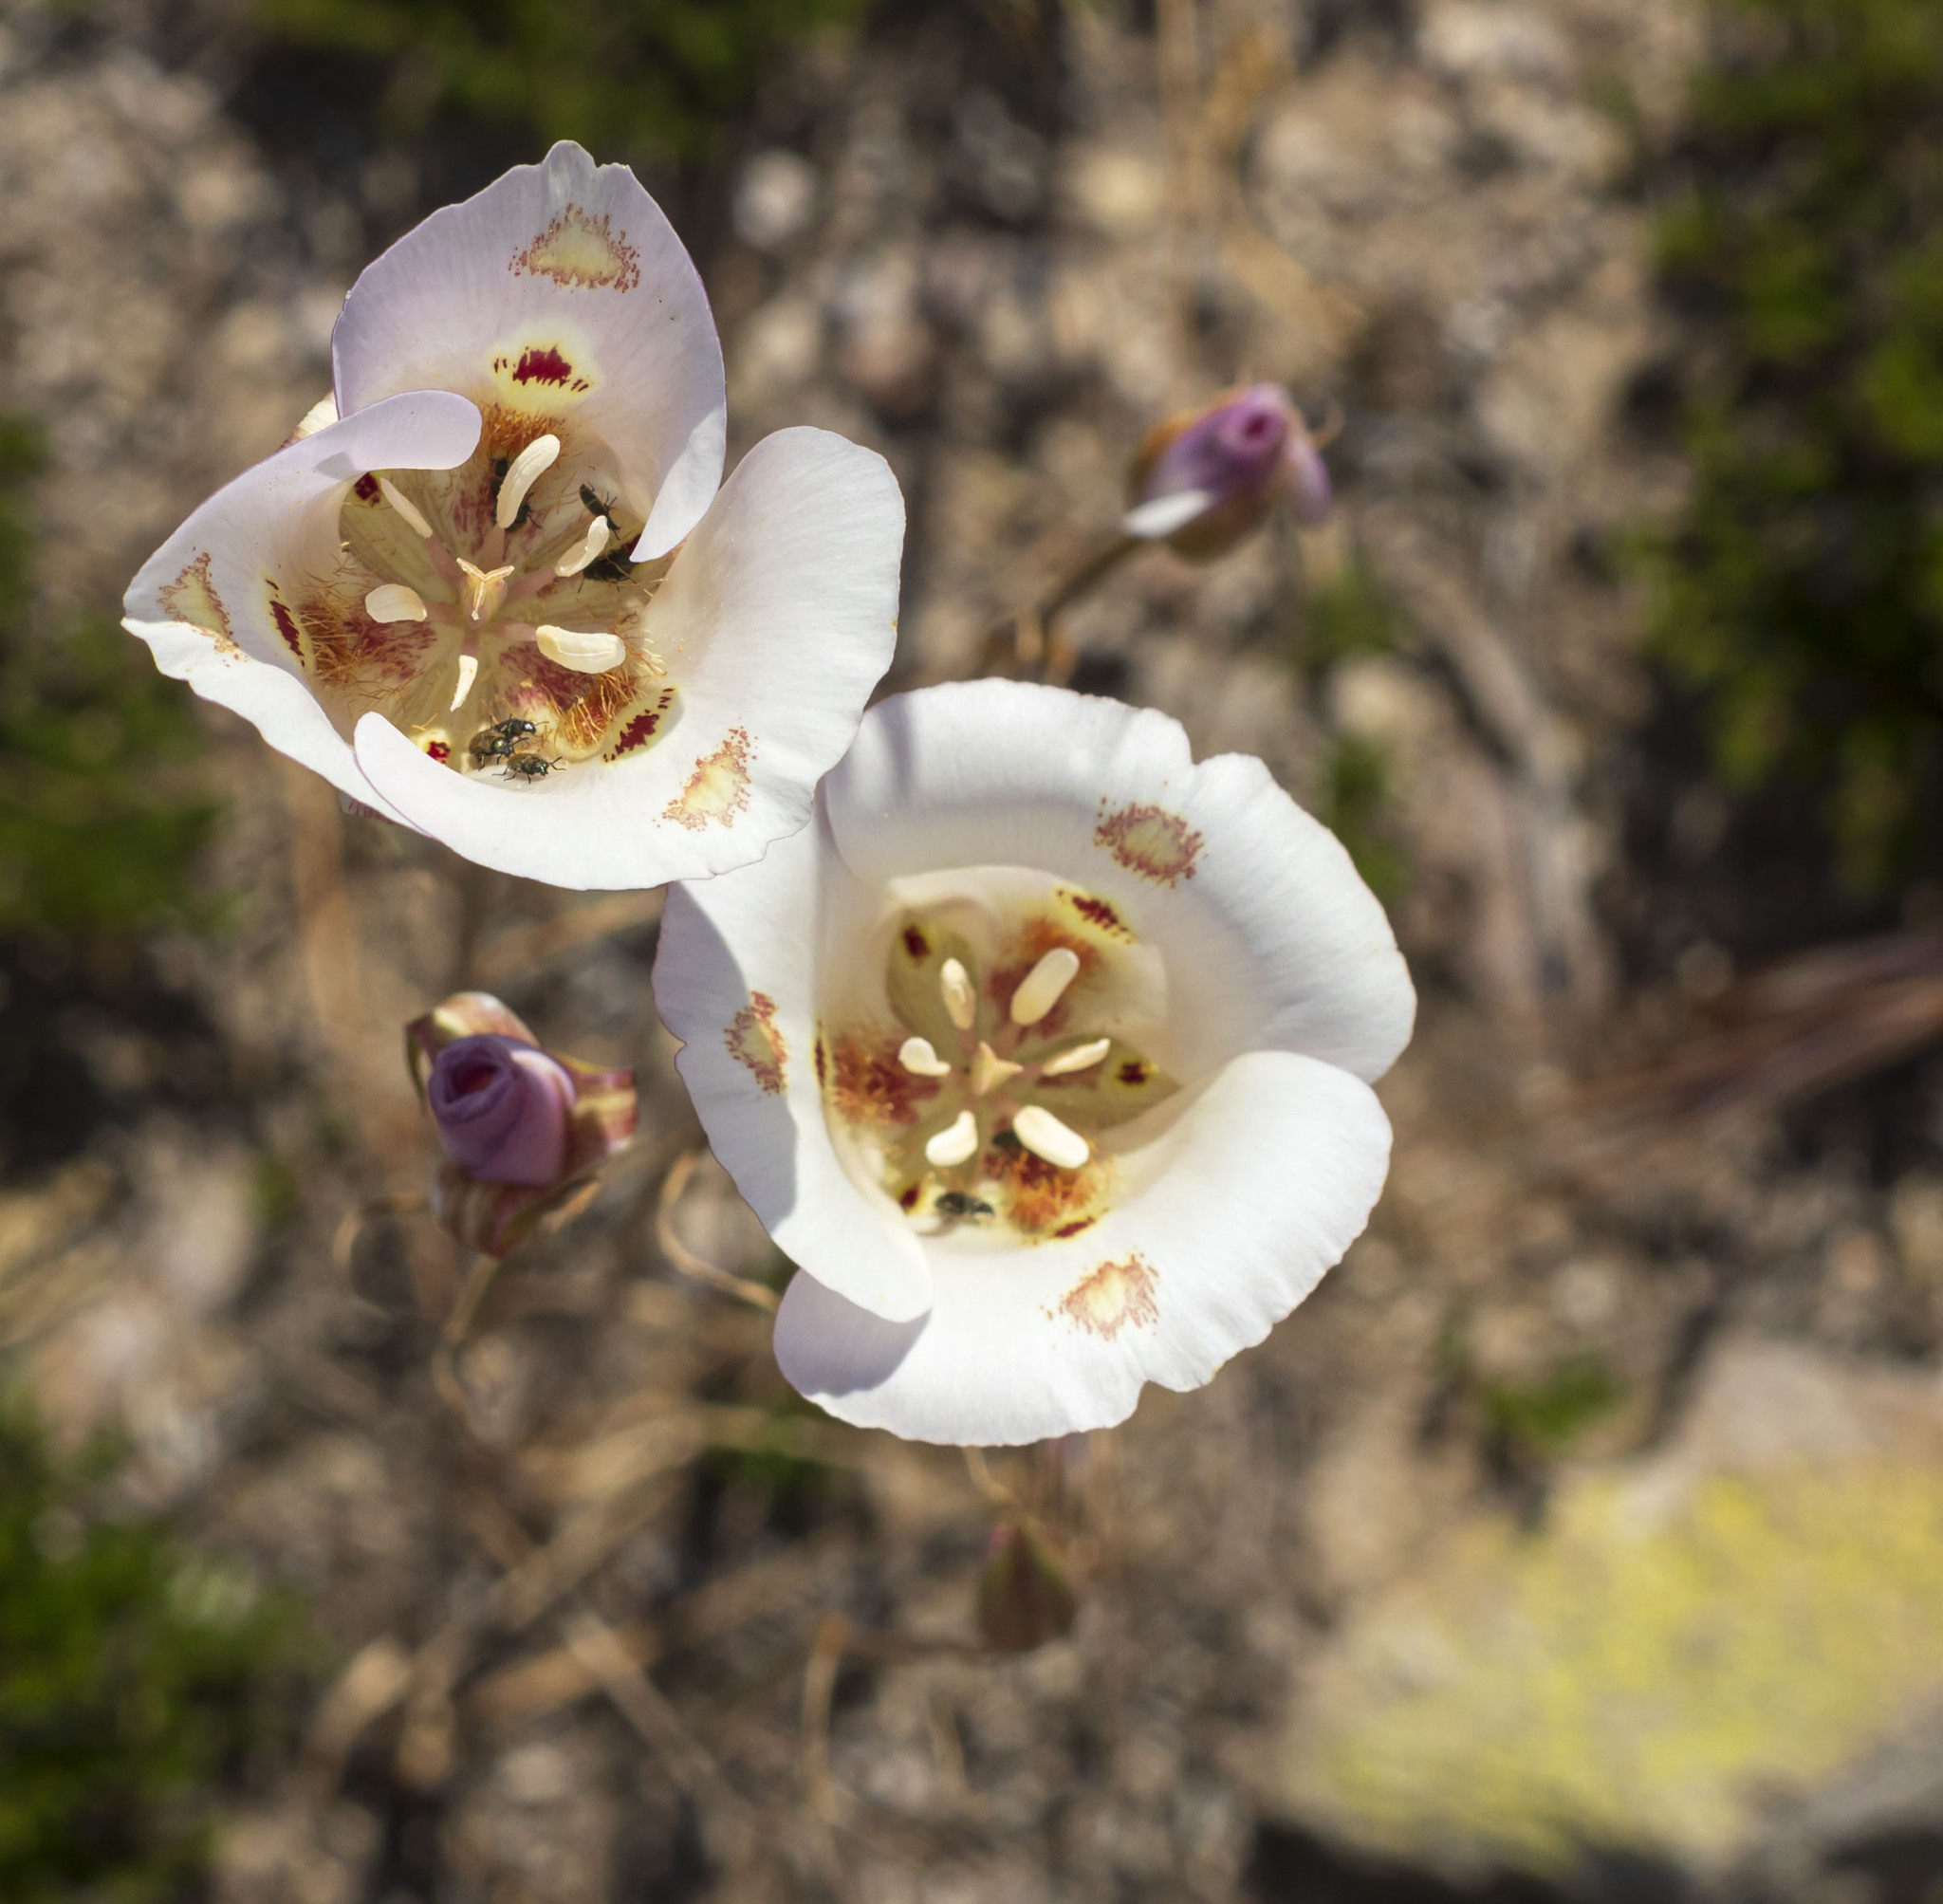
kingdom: Plantae
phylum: Tracheophyta
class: Liliopsida
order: Liliales
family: Liliaceae
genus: Calochortus
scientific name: Calochortus venustus
